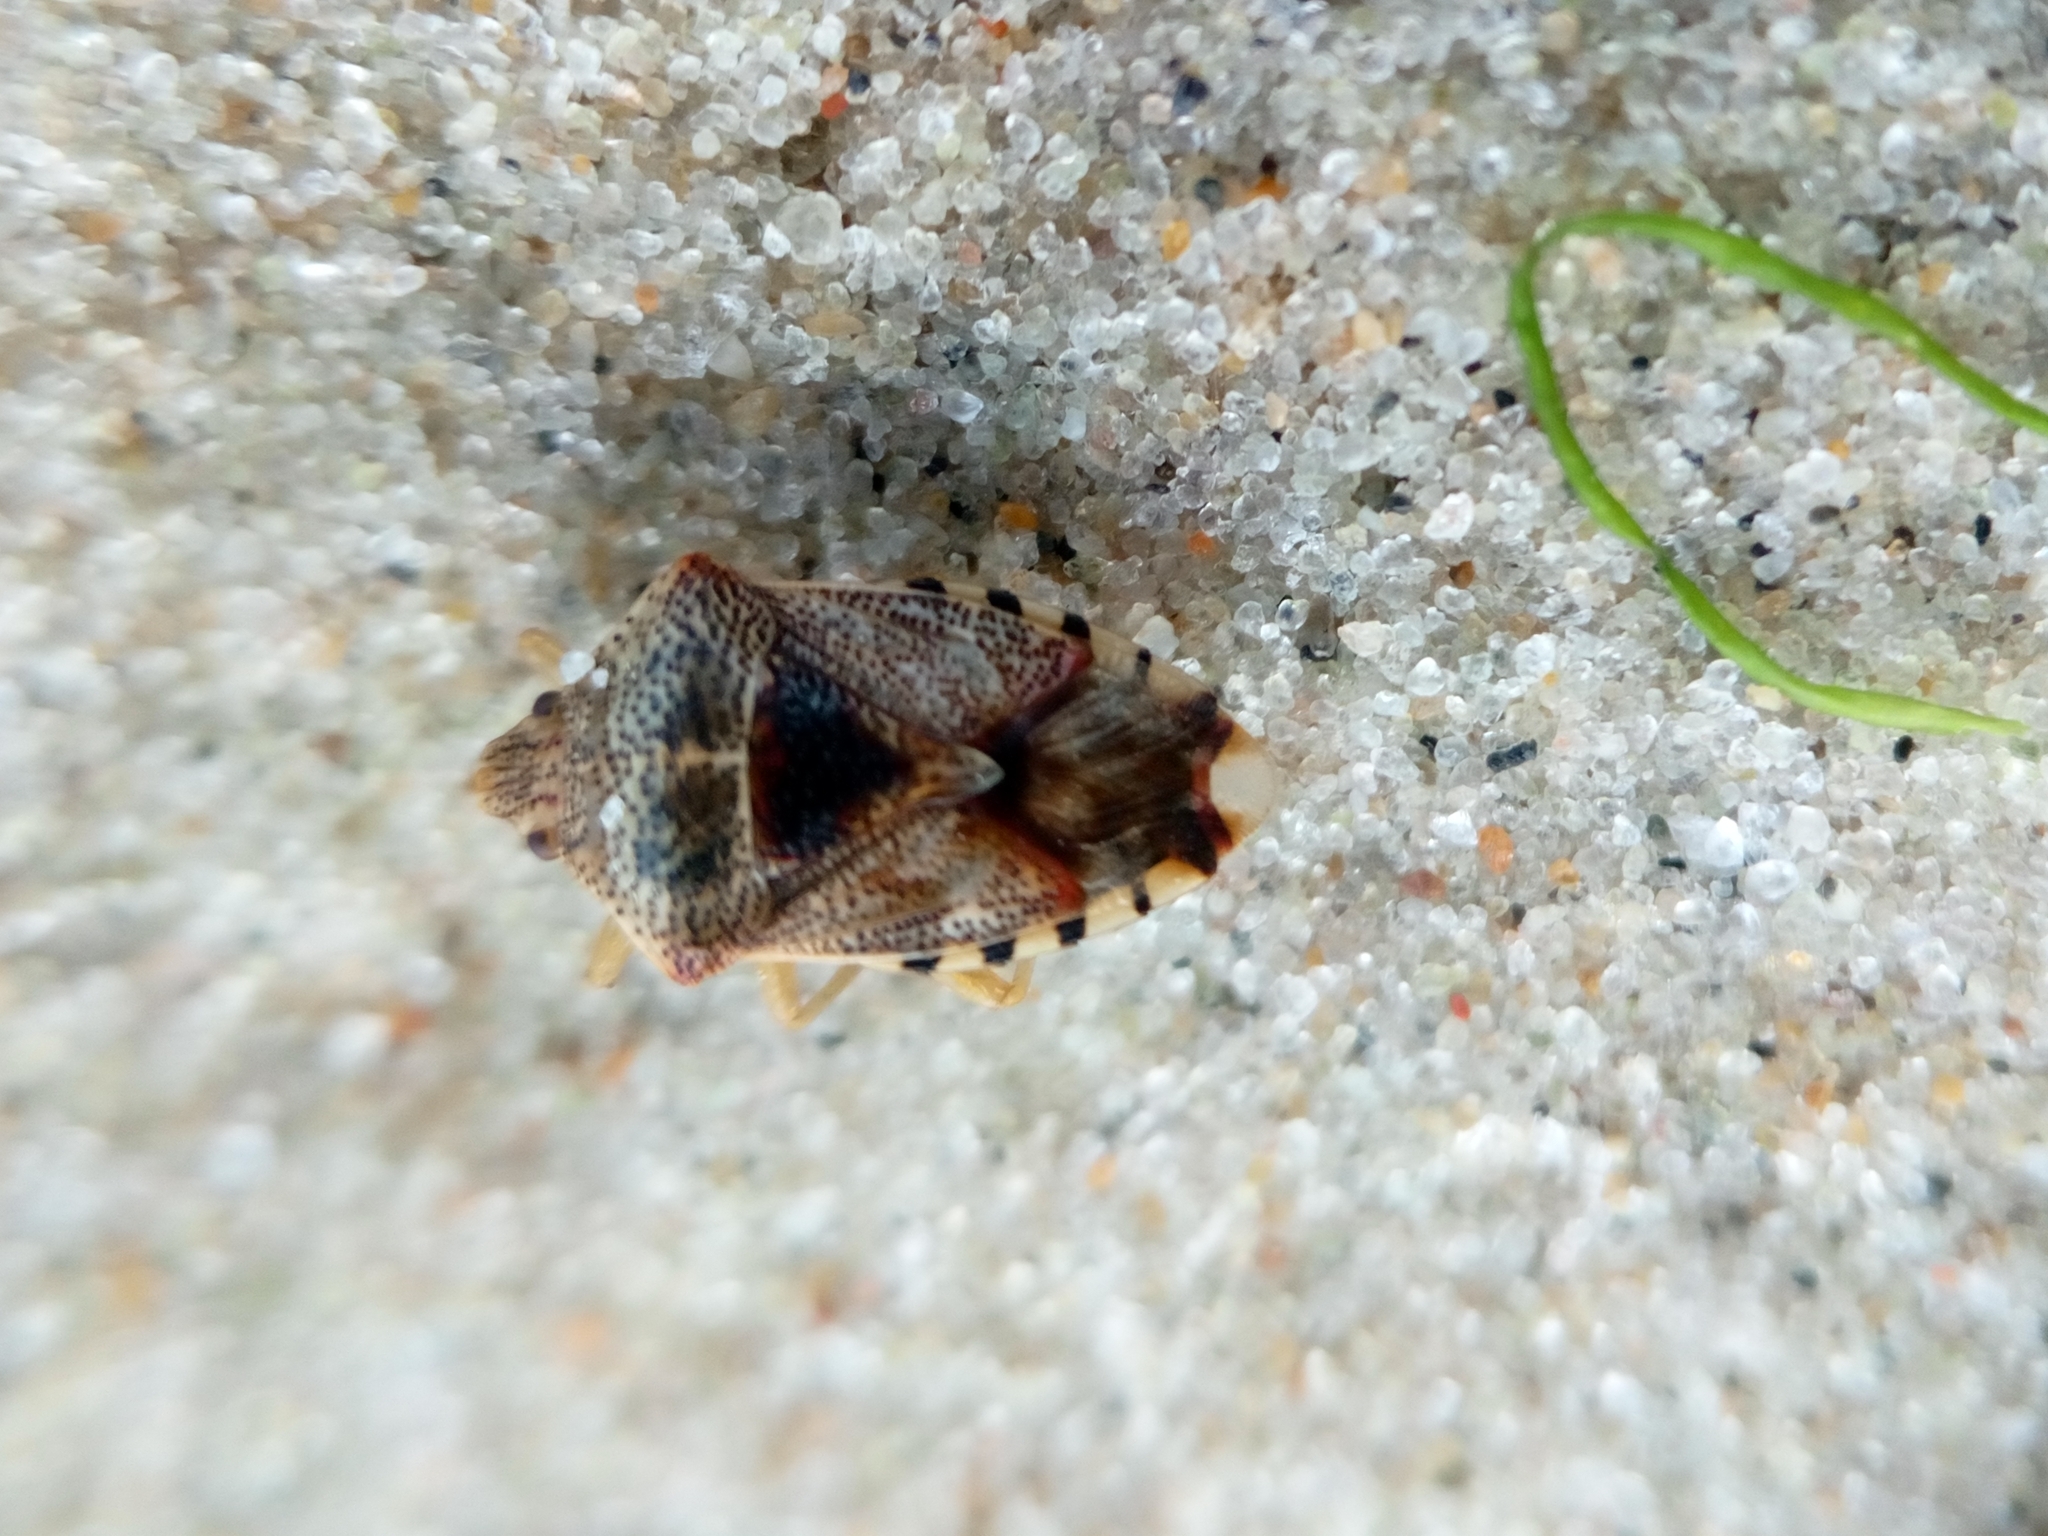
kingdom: Animalia
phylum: Arthropoda
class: Insecta
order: Hemiptera
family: Acanthosomatidae
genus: Elasmucha
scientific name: Elasmucha grisea
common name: Parent bug
